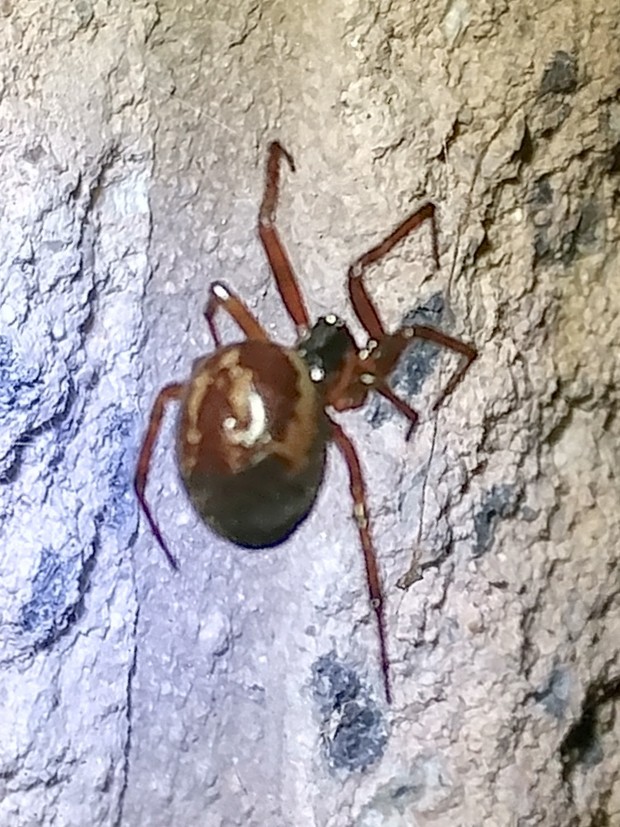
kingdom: Animalia
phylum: Arthropoda
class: Arachnida
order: Araneae
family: Theridiidae
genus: Steatoda
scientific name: Steatoda nobilis
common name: Cobweb weaver
